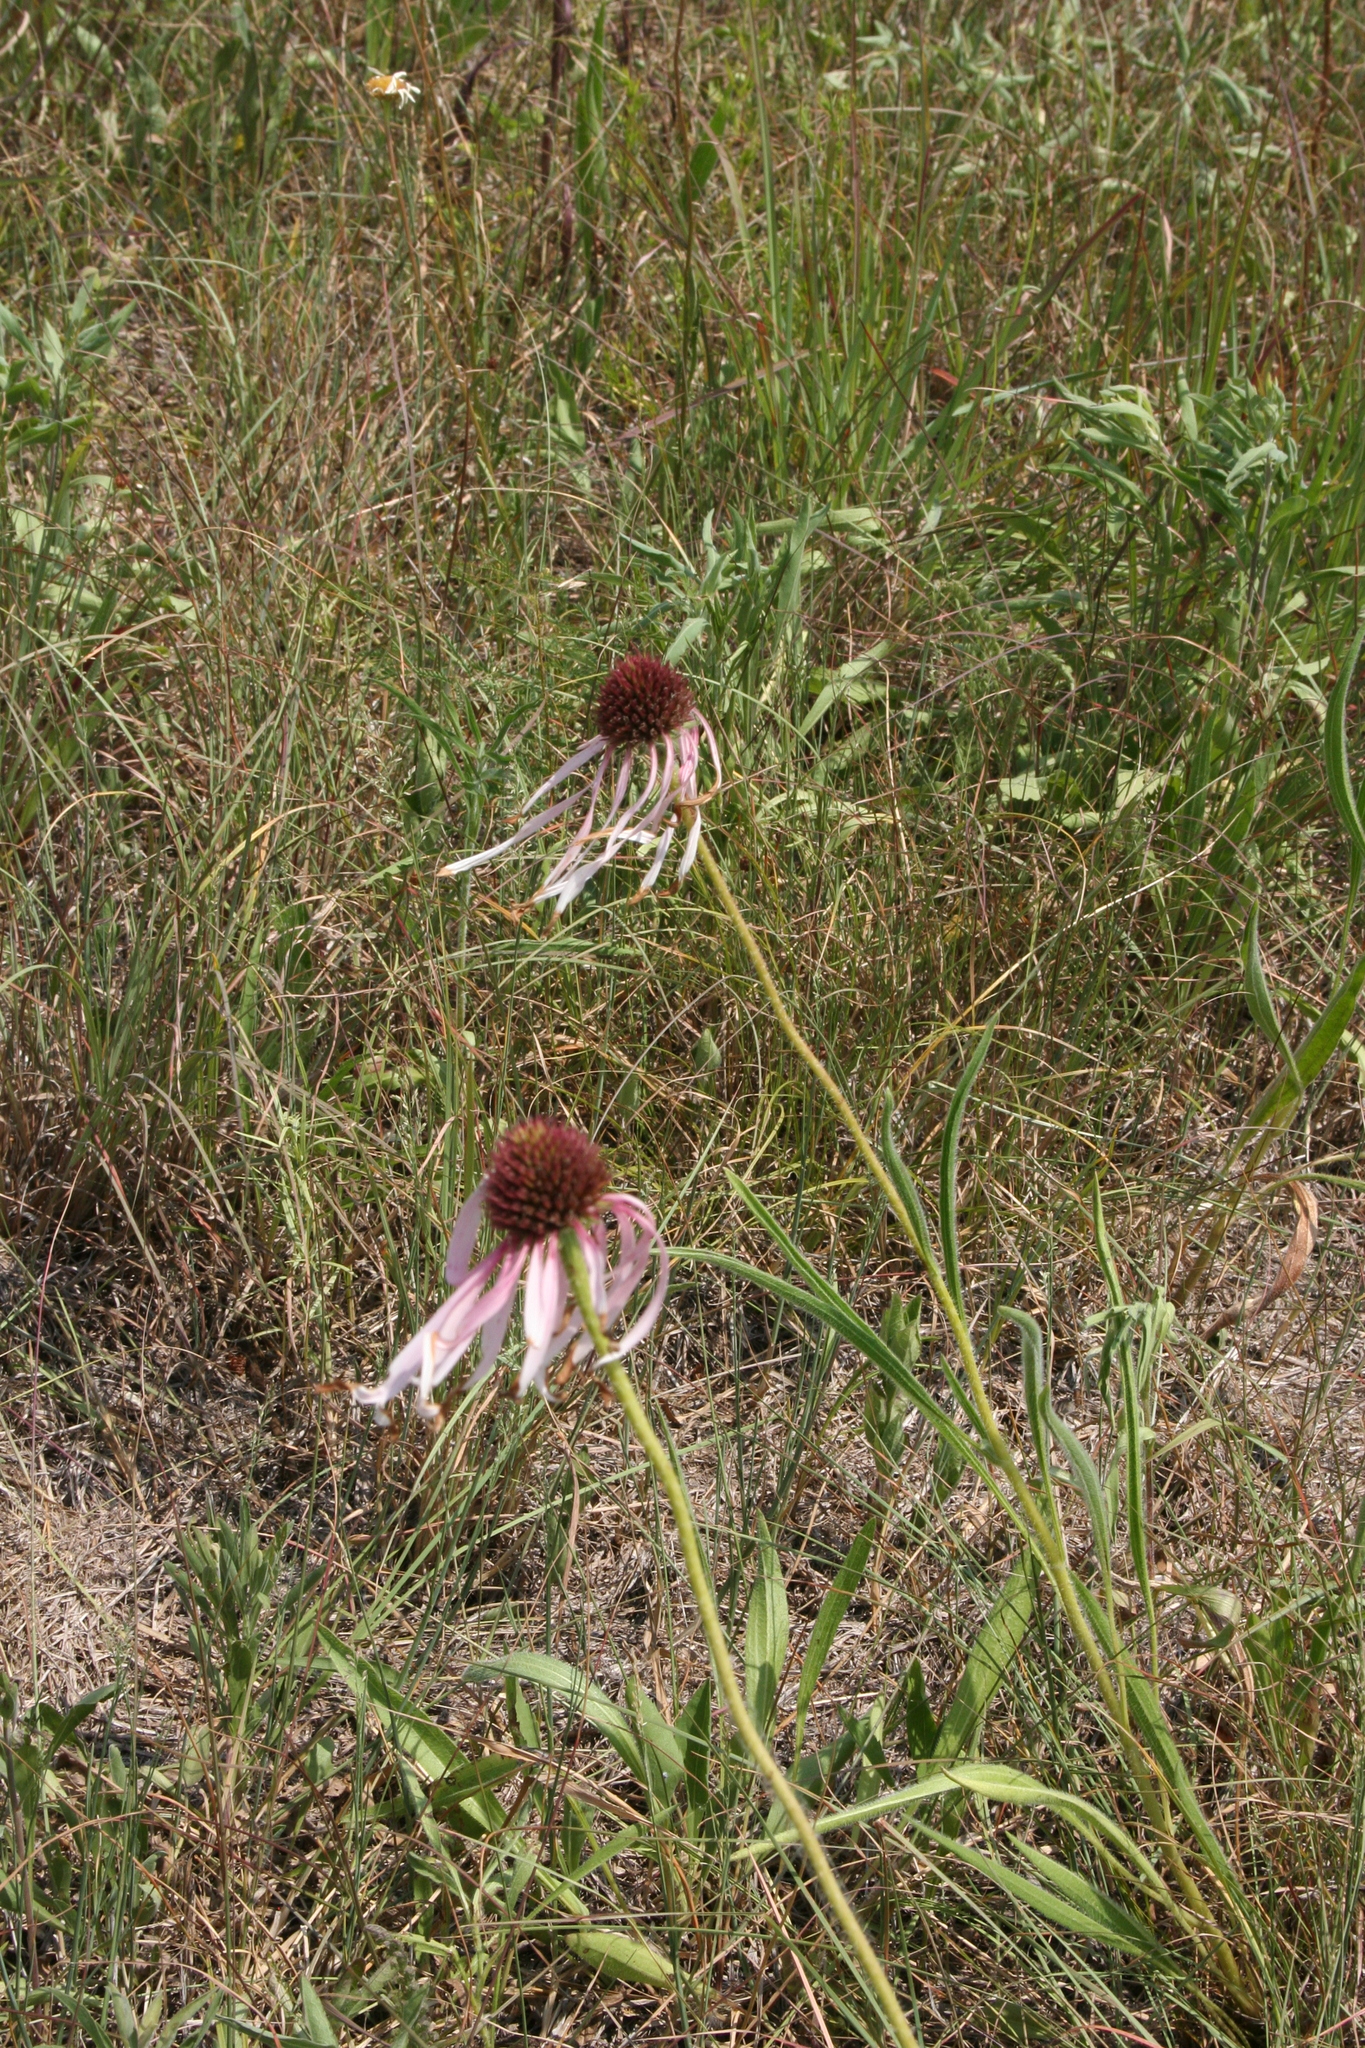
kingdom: Plantae
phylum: Tracheophyta
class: Magnoliopsida
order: Asterales
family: Asteraceae
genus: Echinacea
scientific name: Echinacea pallida
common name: Pale echinacea
